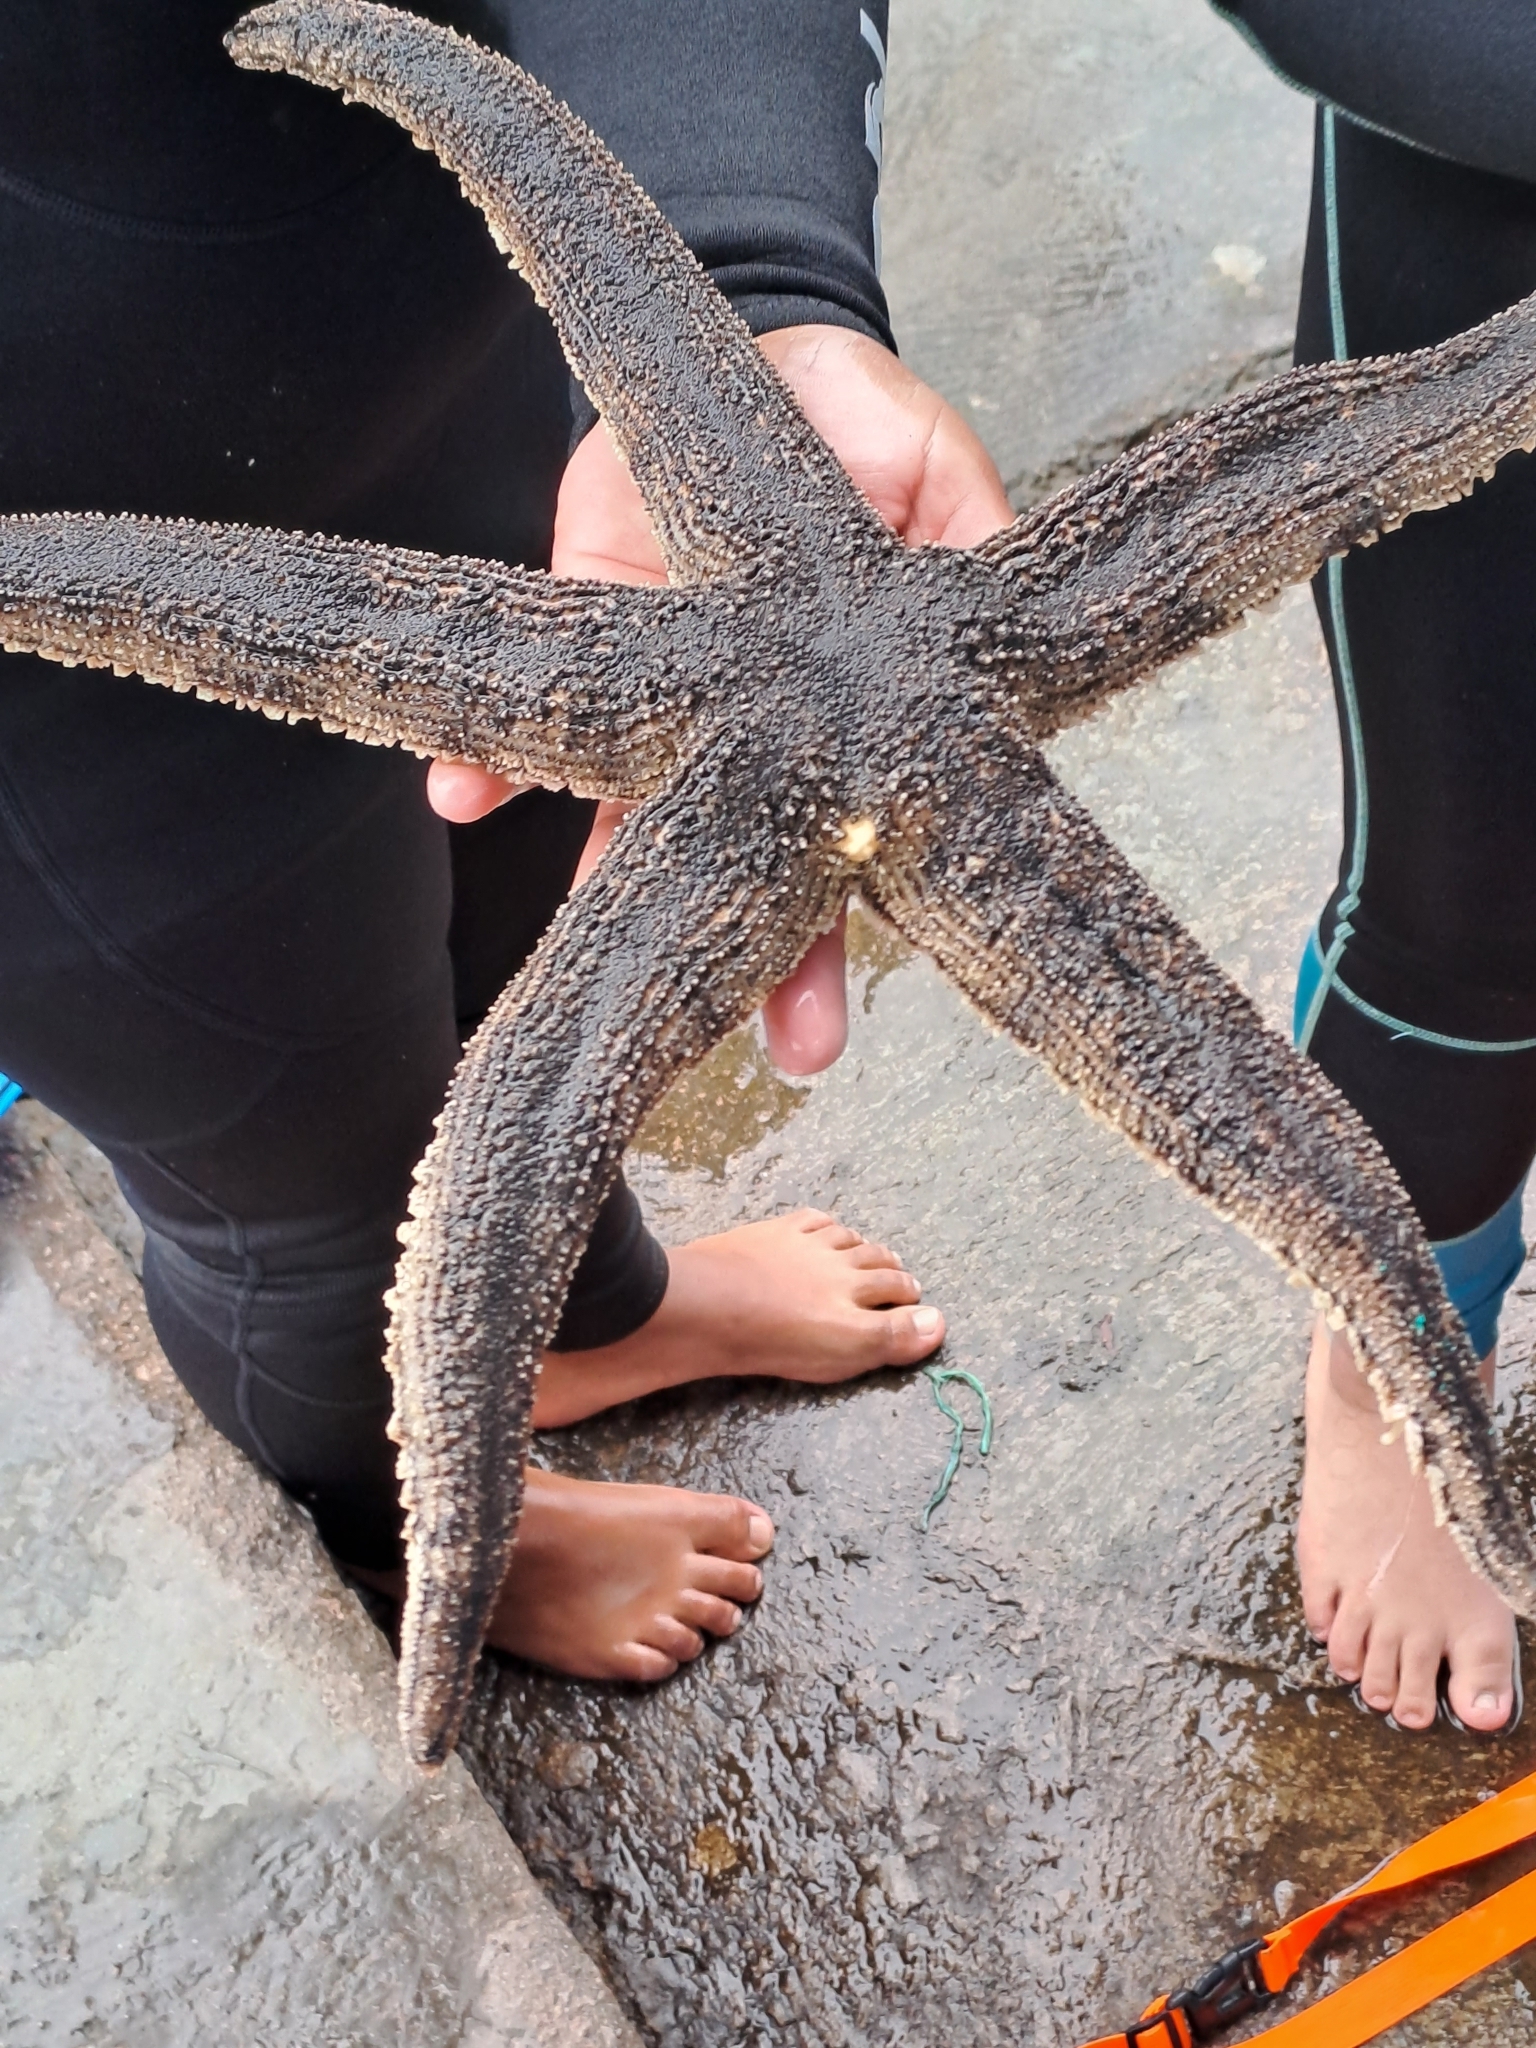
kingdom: Animalia
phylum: Echinodermata
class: Asteroidea
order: Paxillosida
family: Luidiidae
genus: Luidia
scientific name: Luidia magellanica
